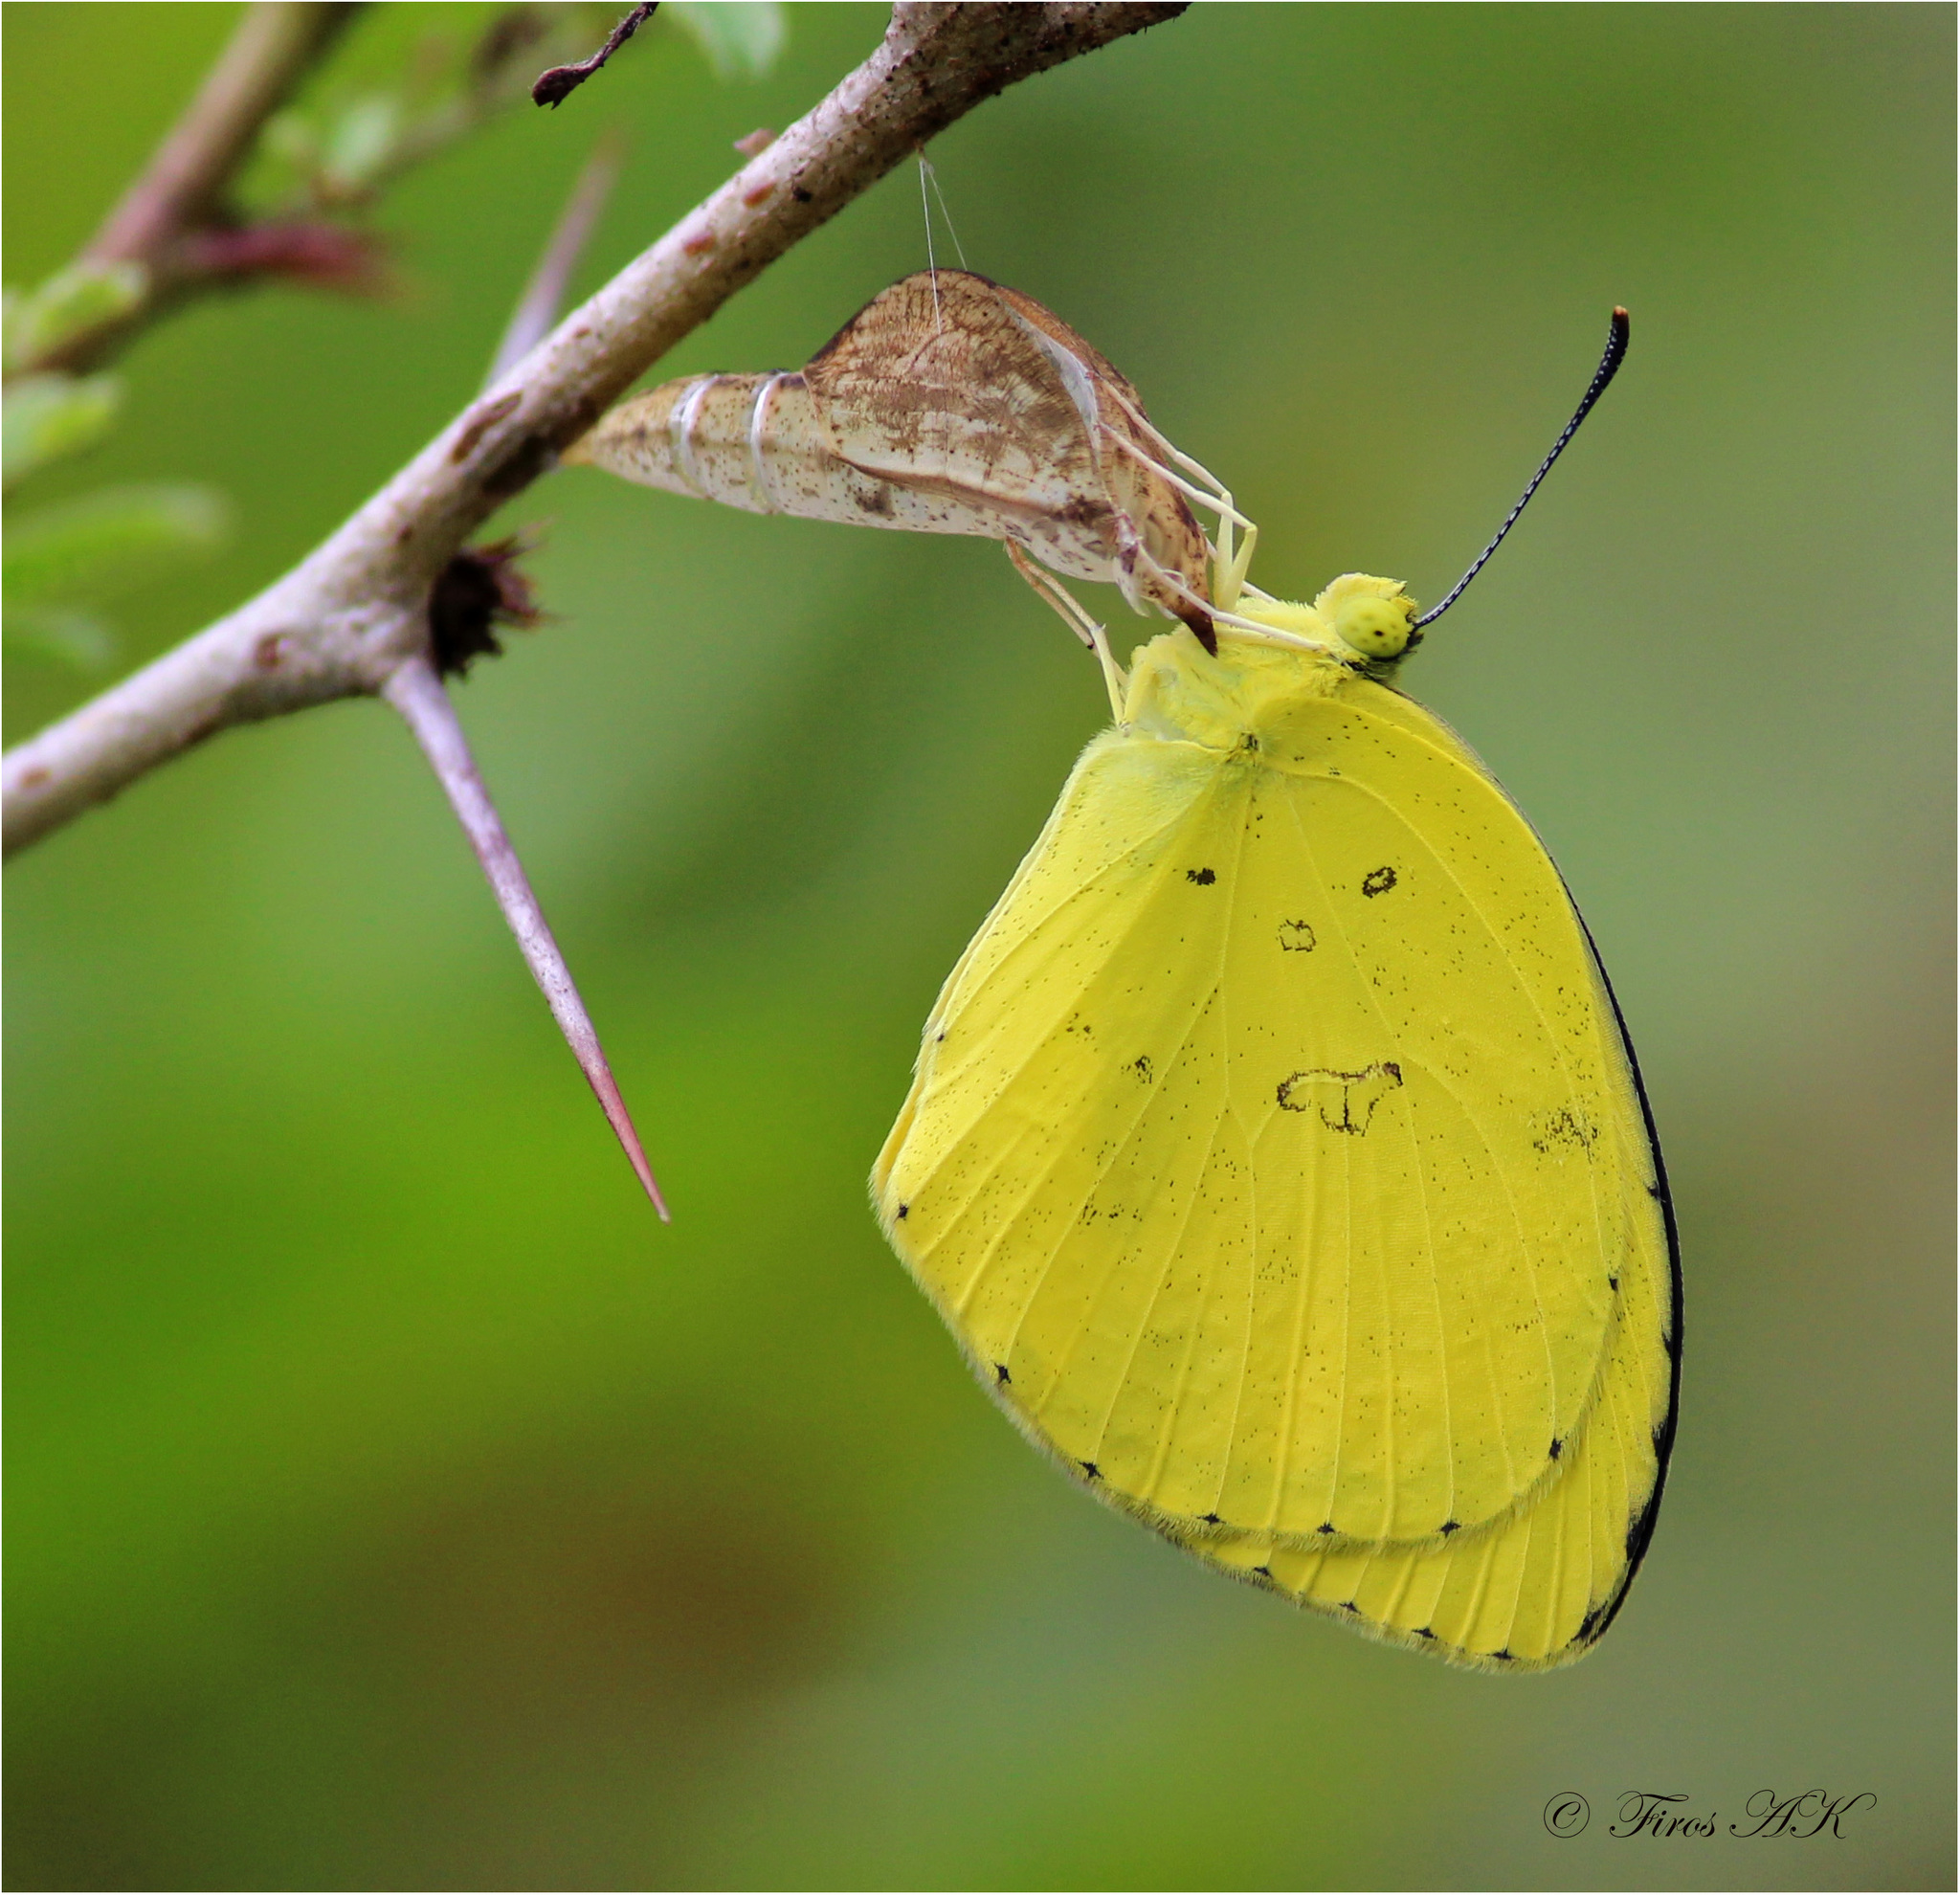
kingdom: Animalia
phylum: Arthropoda
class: Insecta
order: Lepidoptera
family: Pieridae
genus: Eurema
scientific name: Eurema hecabe
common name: Pale grass yellow
